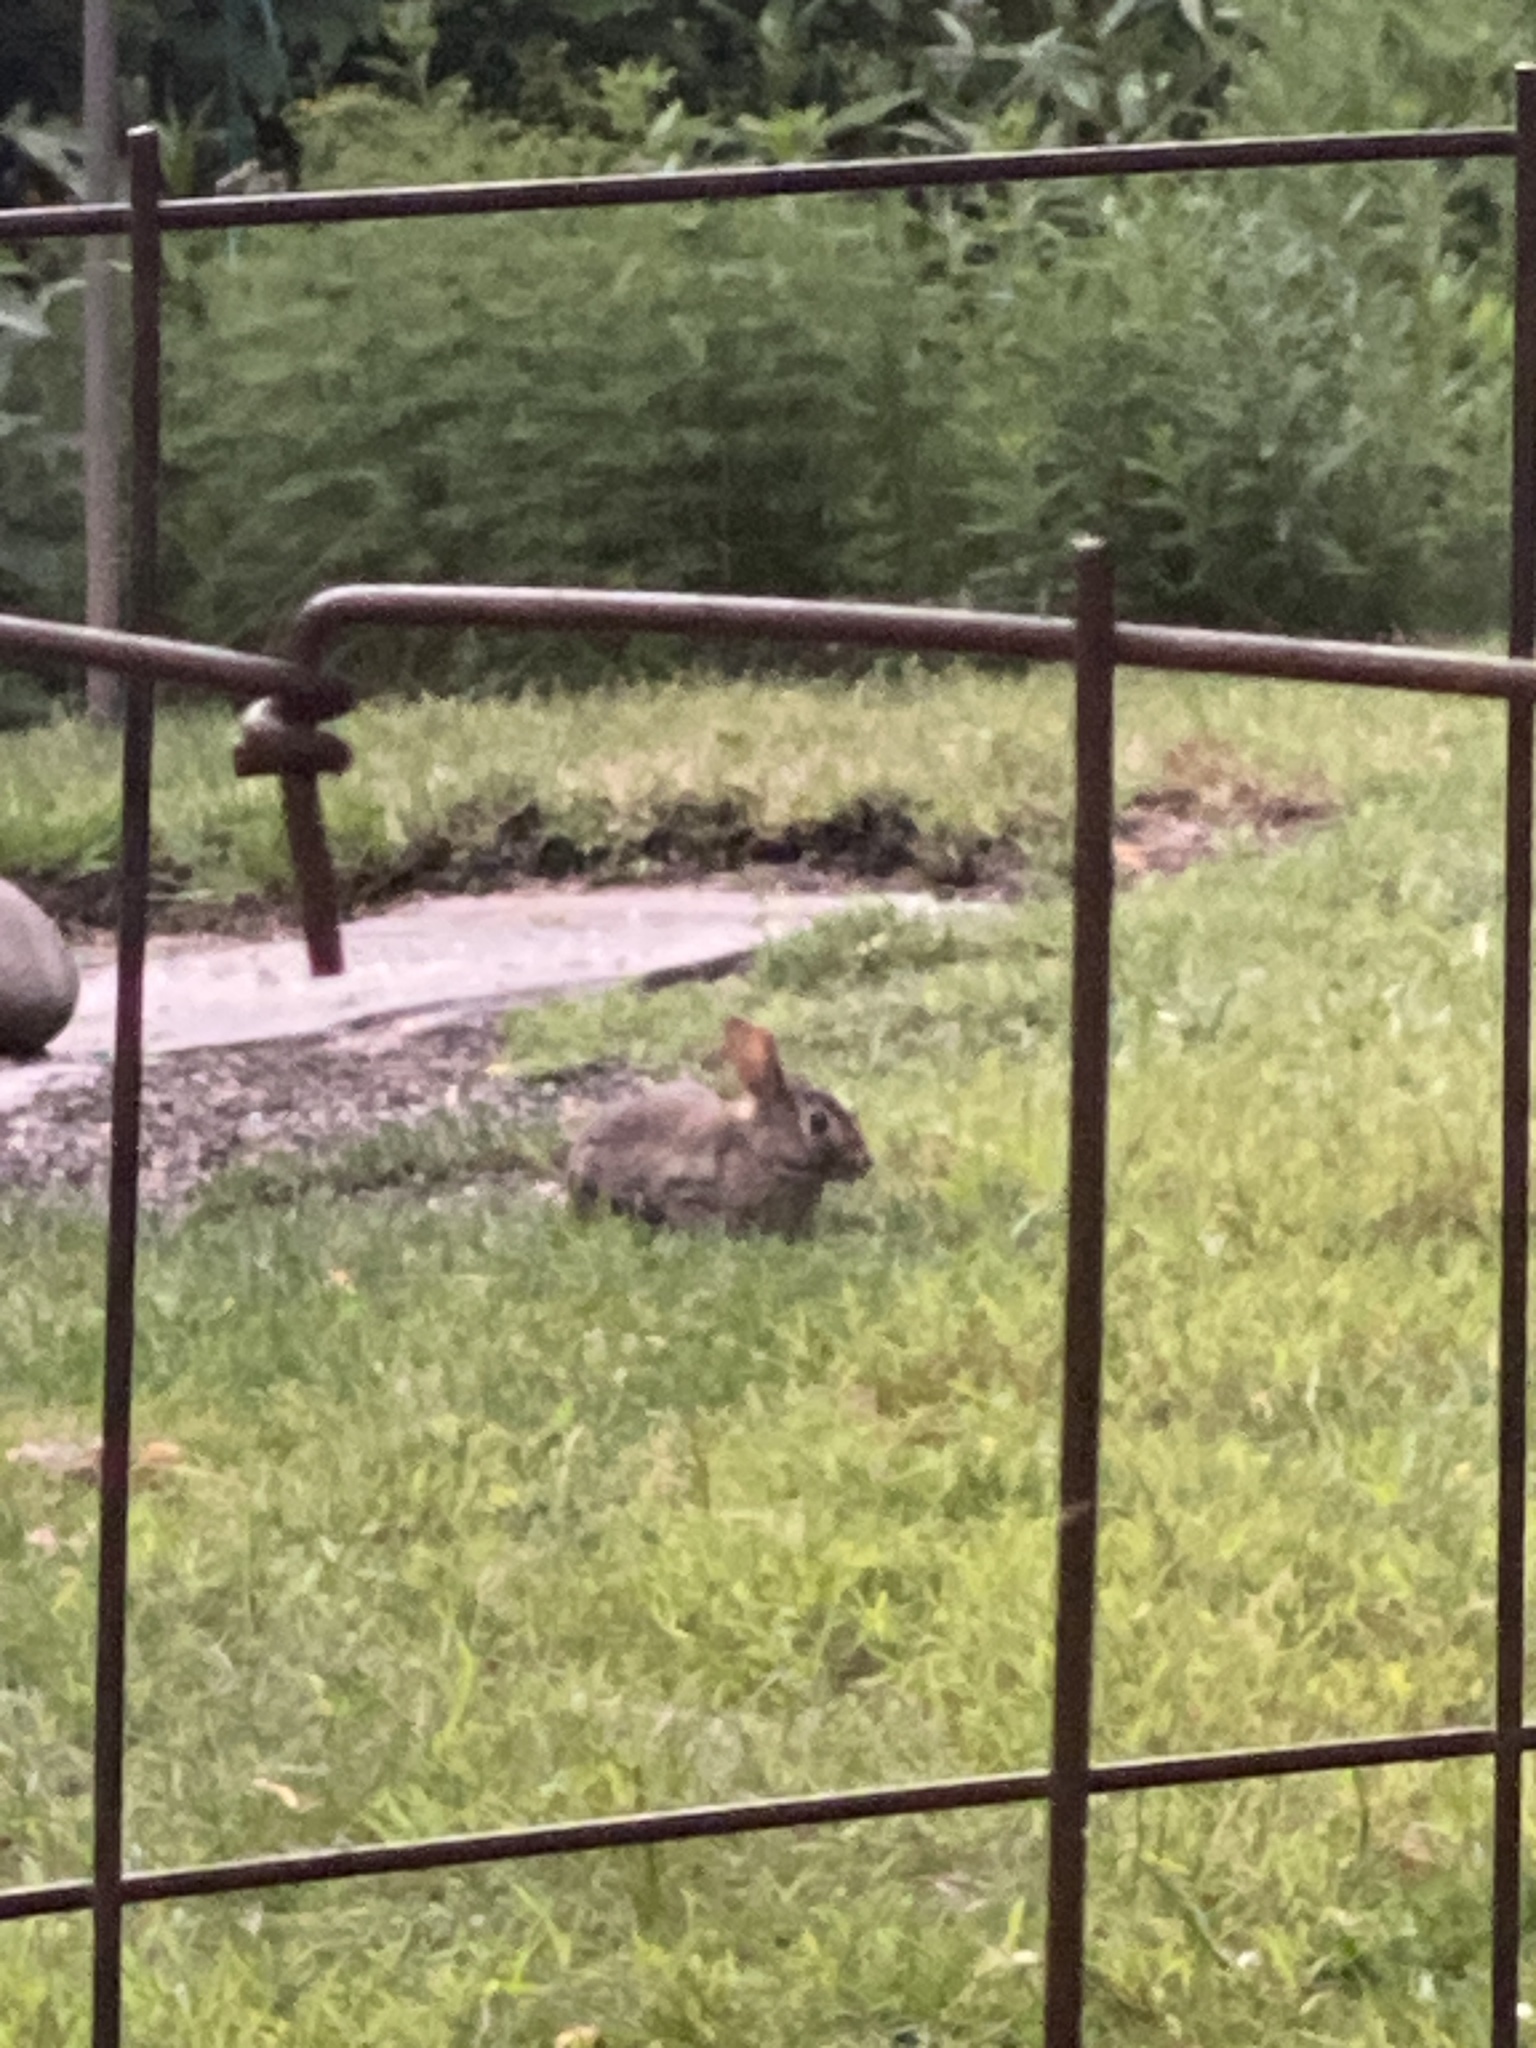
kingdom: Animalia
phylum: Chordata
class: Mammalia
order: Lagomorpha
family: Leporidae
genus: Sylvilagus
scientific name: Sylvilagus floridanus
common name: Eastern cottontail
